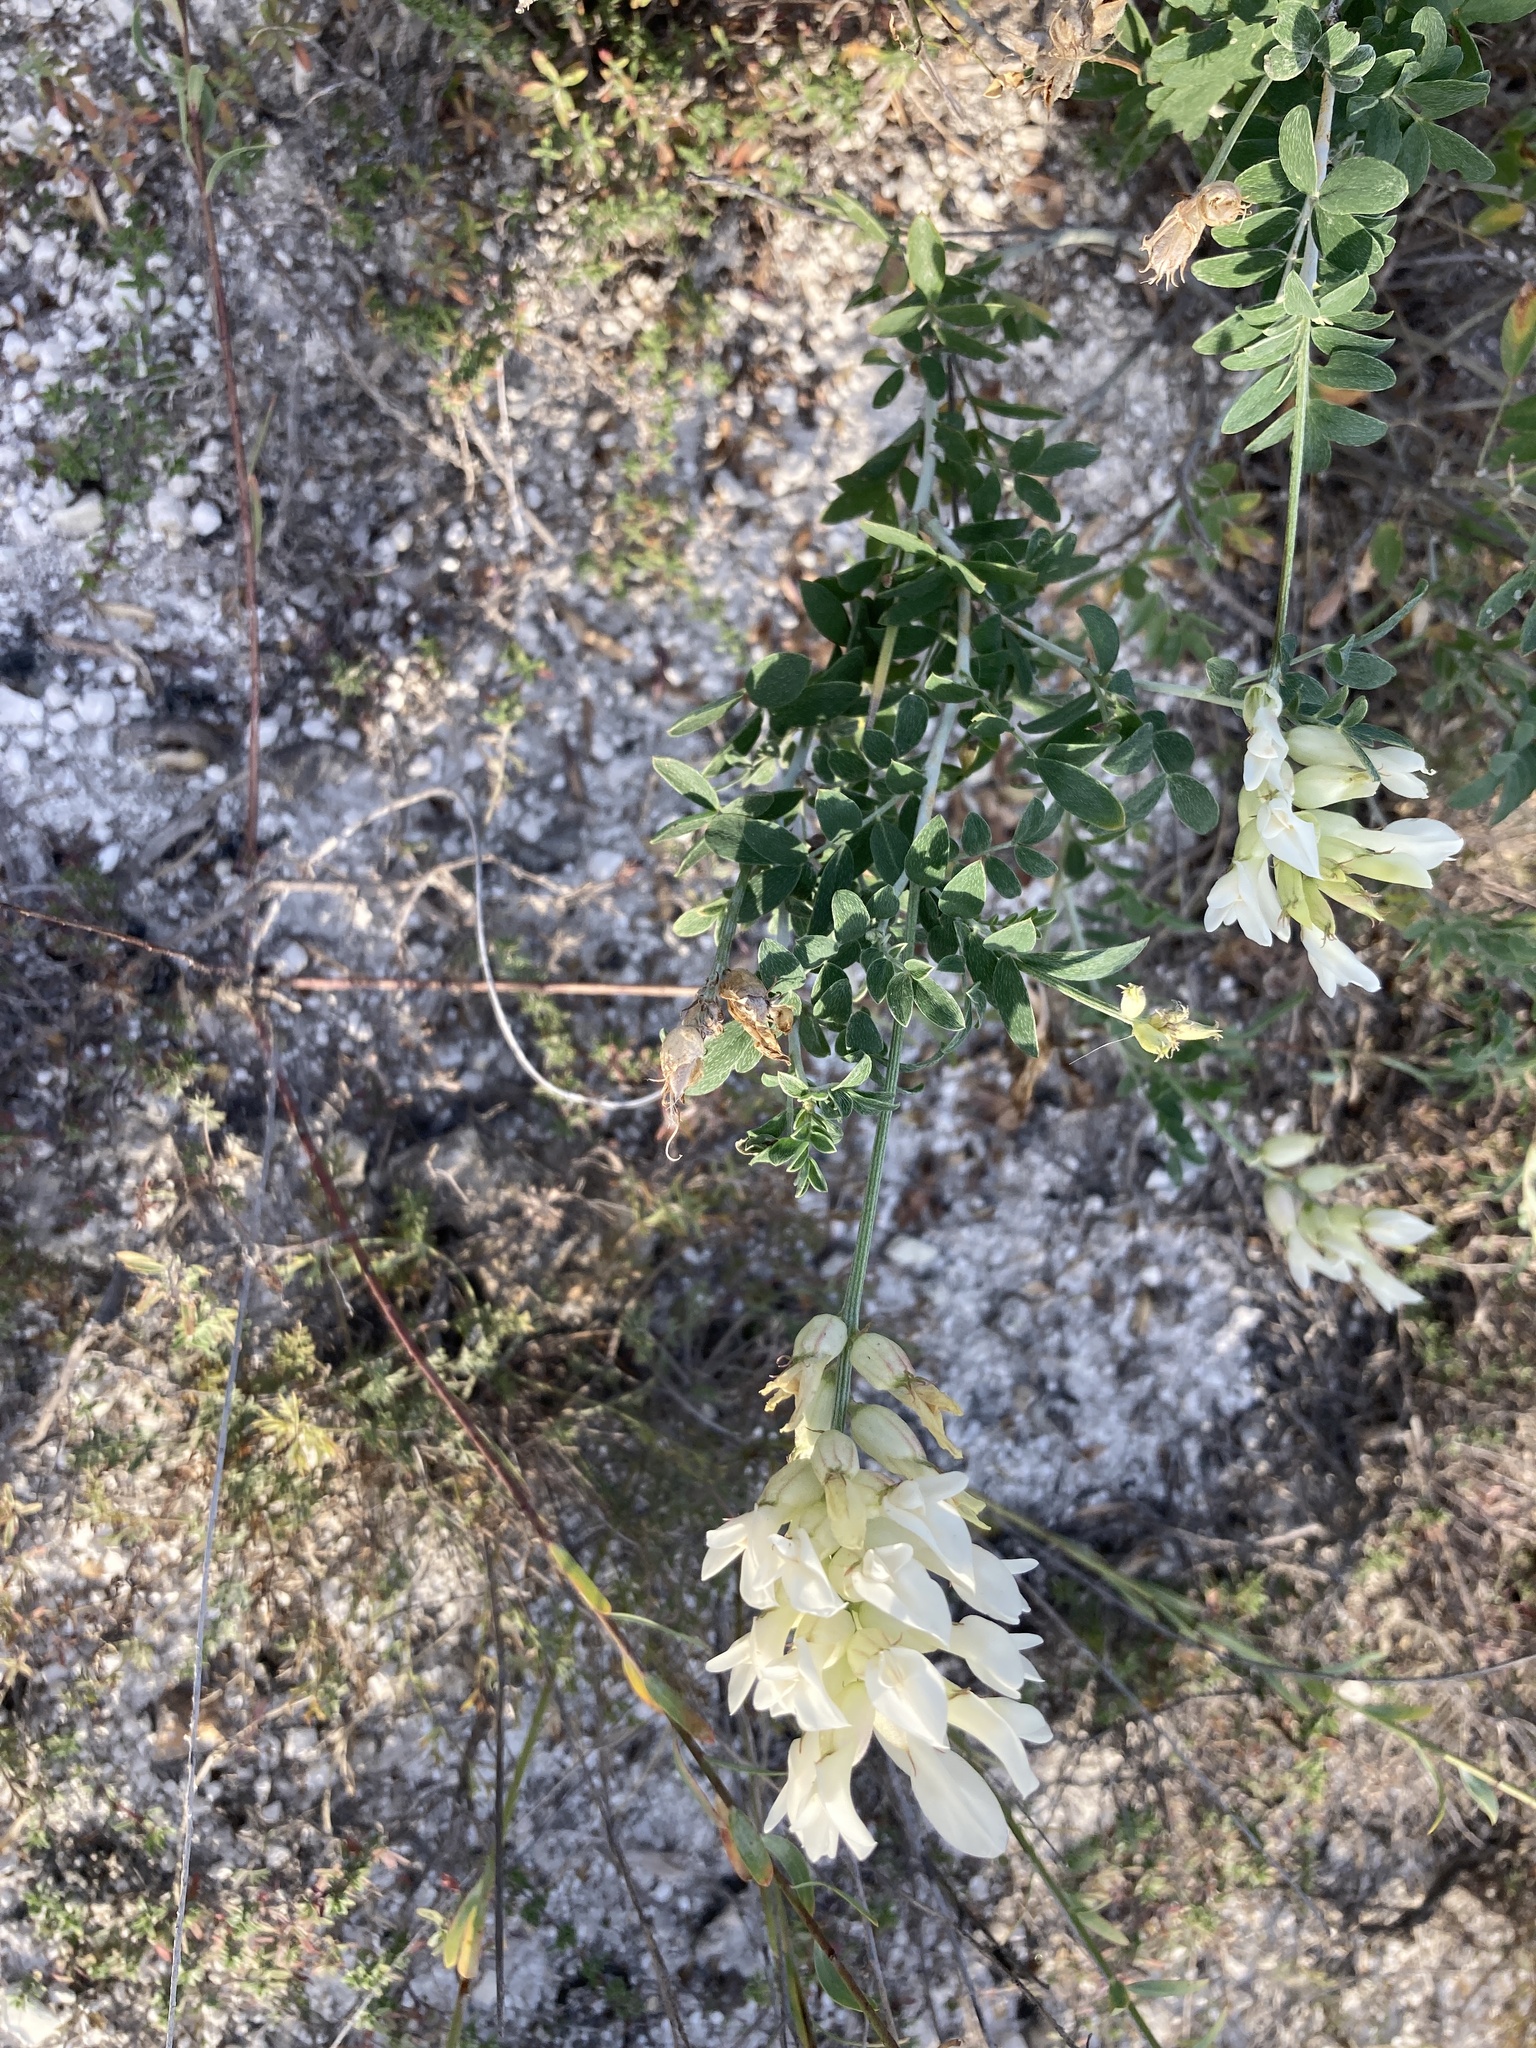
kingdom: Plantae
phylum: Tracheophyta
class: Magnoliopsida
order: Fabales
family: Fabaceae
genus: Astragalus
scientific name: Astragalus albicaulis
